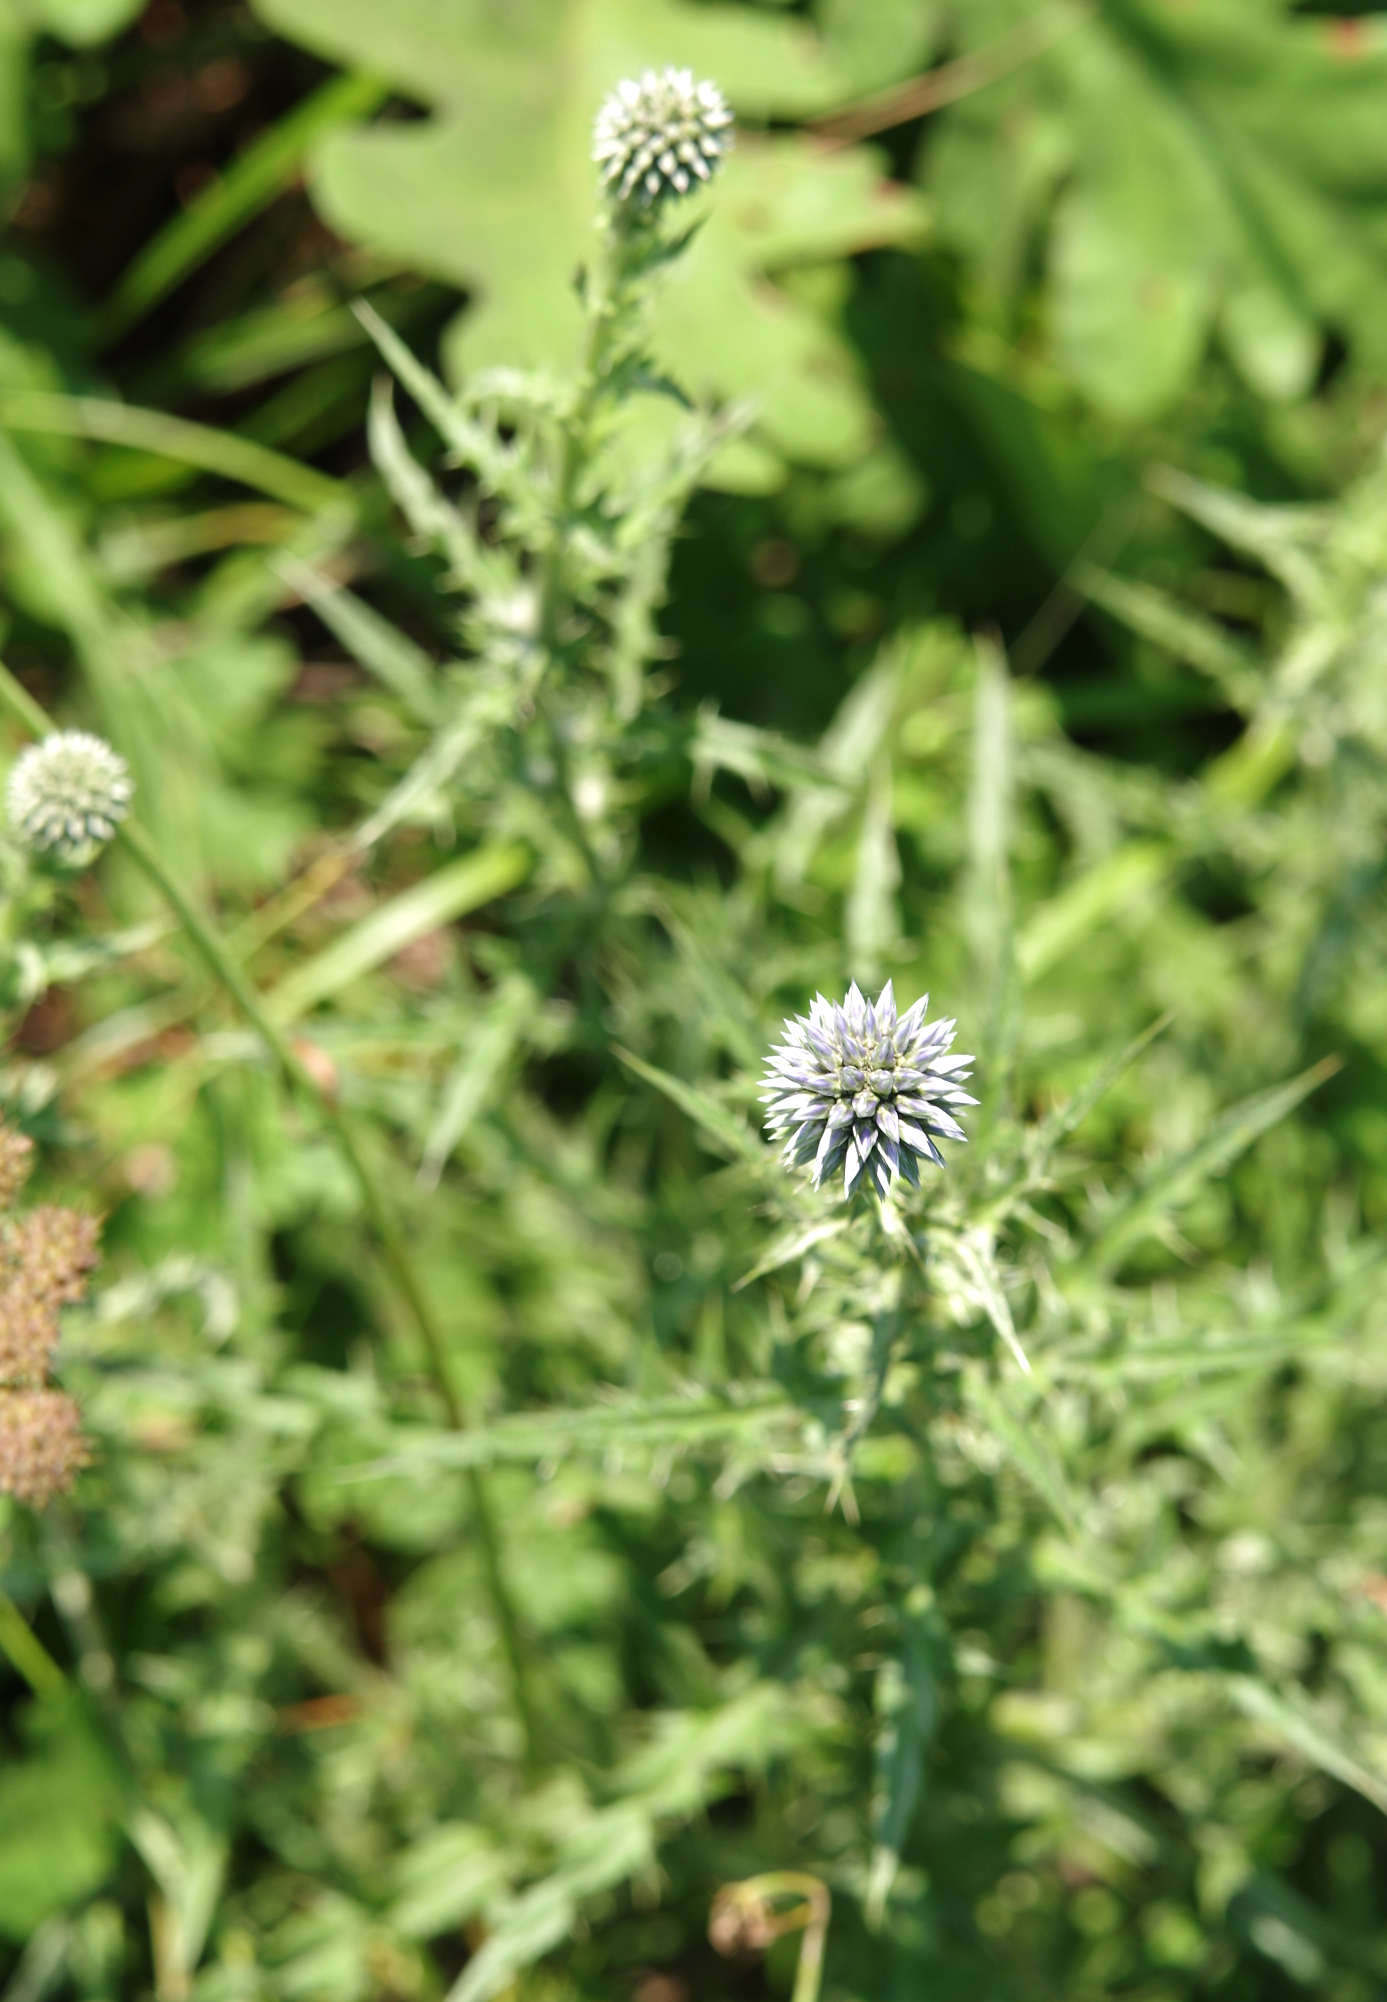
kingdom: Plantae
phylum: Tracheophyta
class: Magnoliopsida
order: Asterales
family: Asteraceae
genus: Echinops
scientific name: Echinops microcephalus
